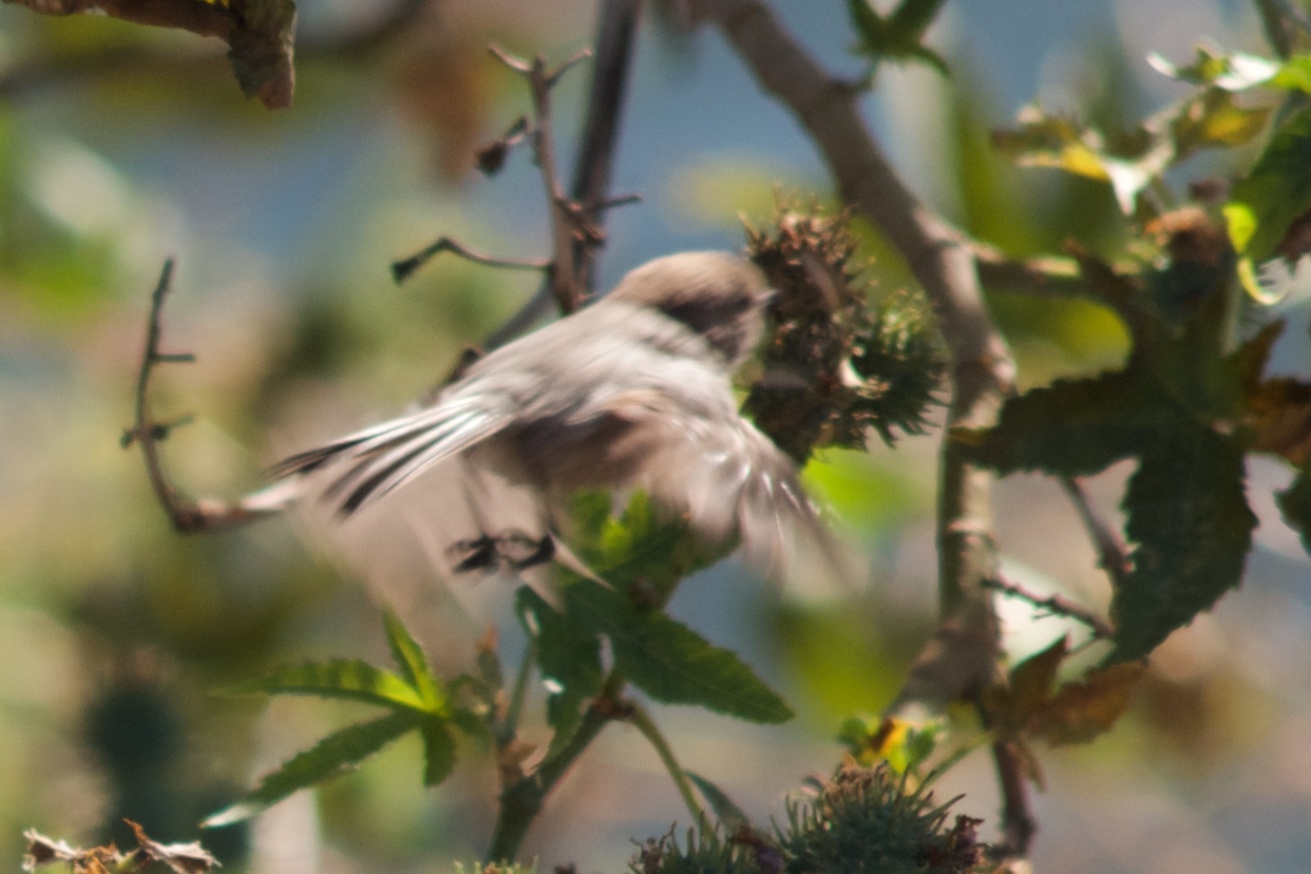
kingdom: Animalia
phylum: Chordata
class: Aves
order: Passeriformes
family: Aegithalidae
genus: Psaltriparus
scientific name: Psaltriparus minimus
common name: American bushtit
